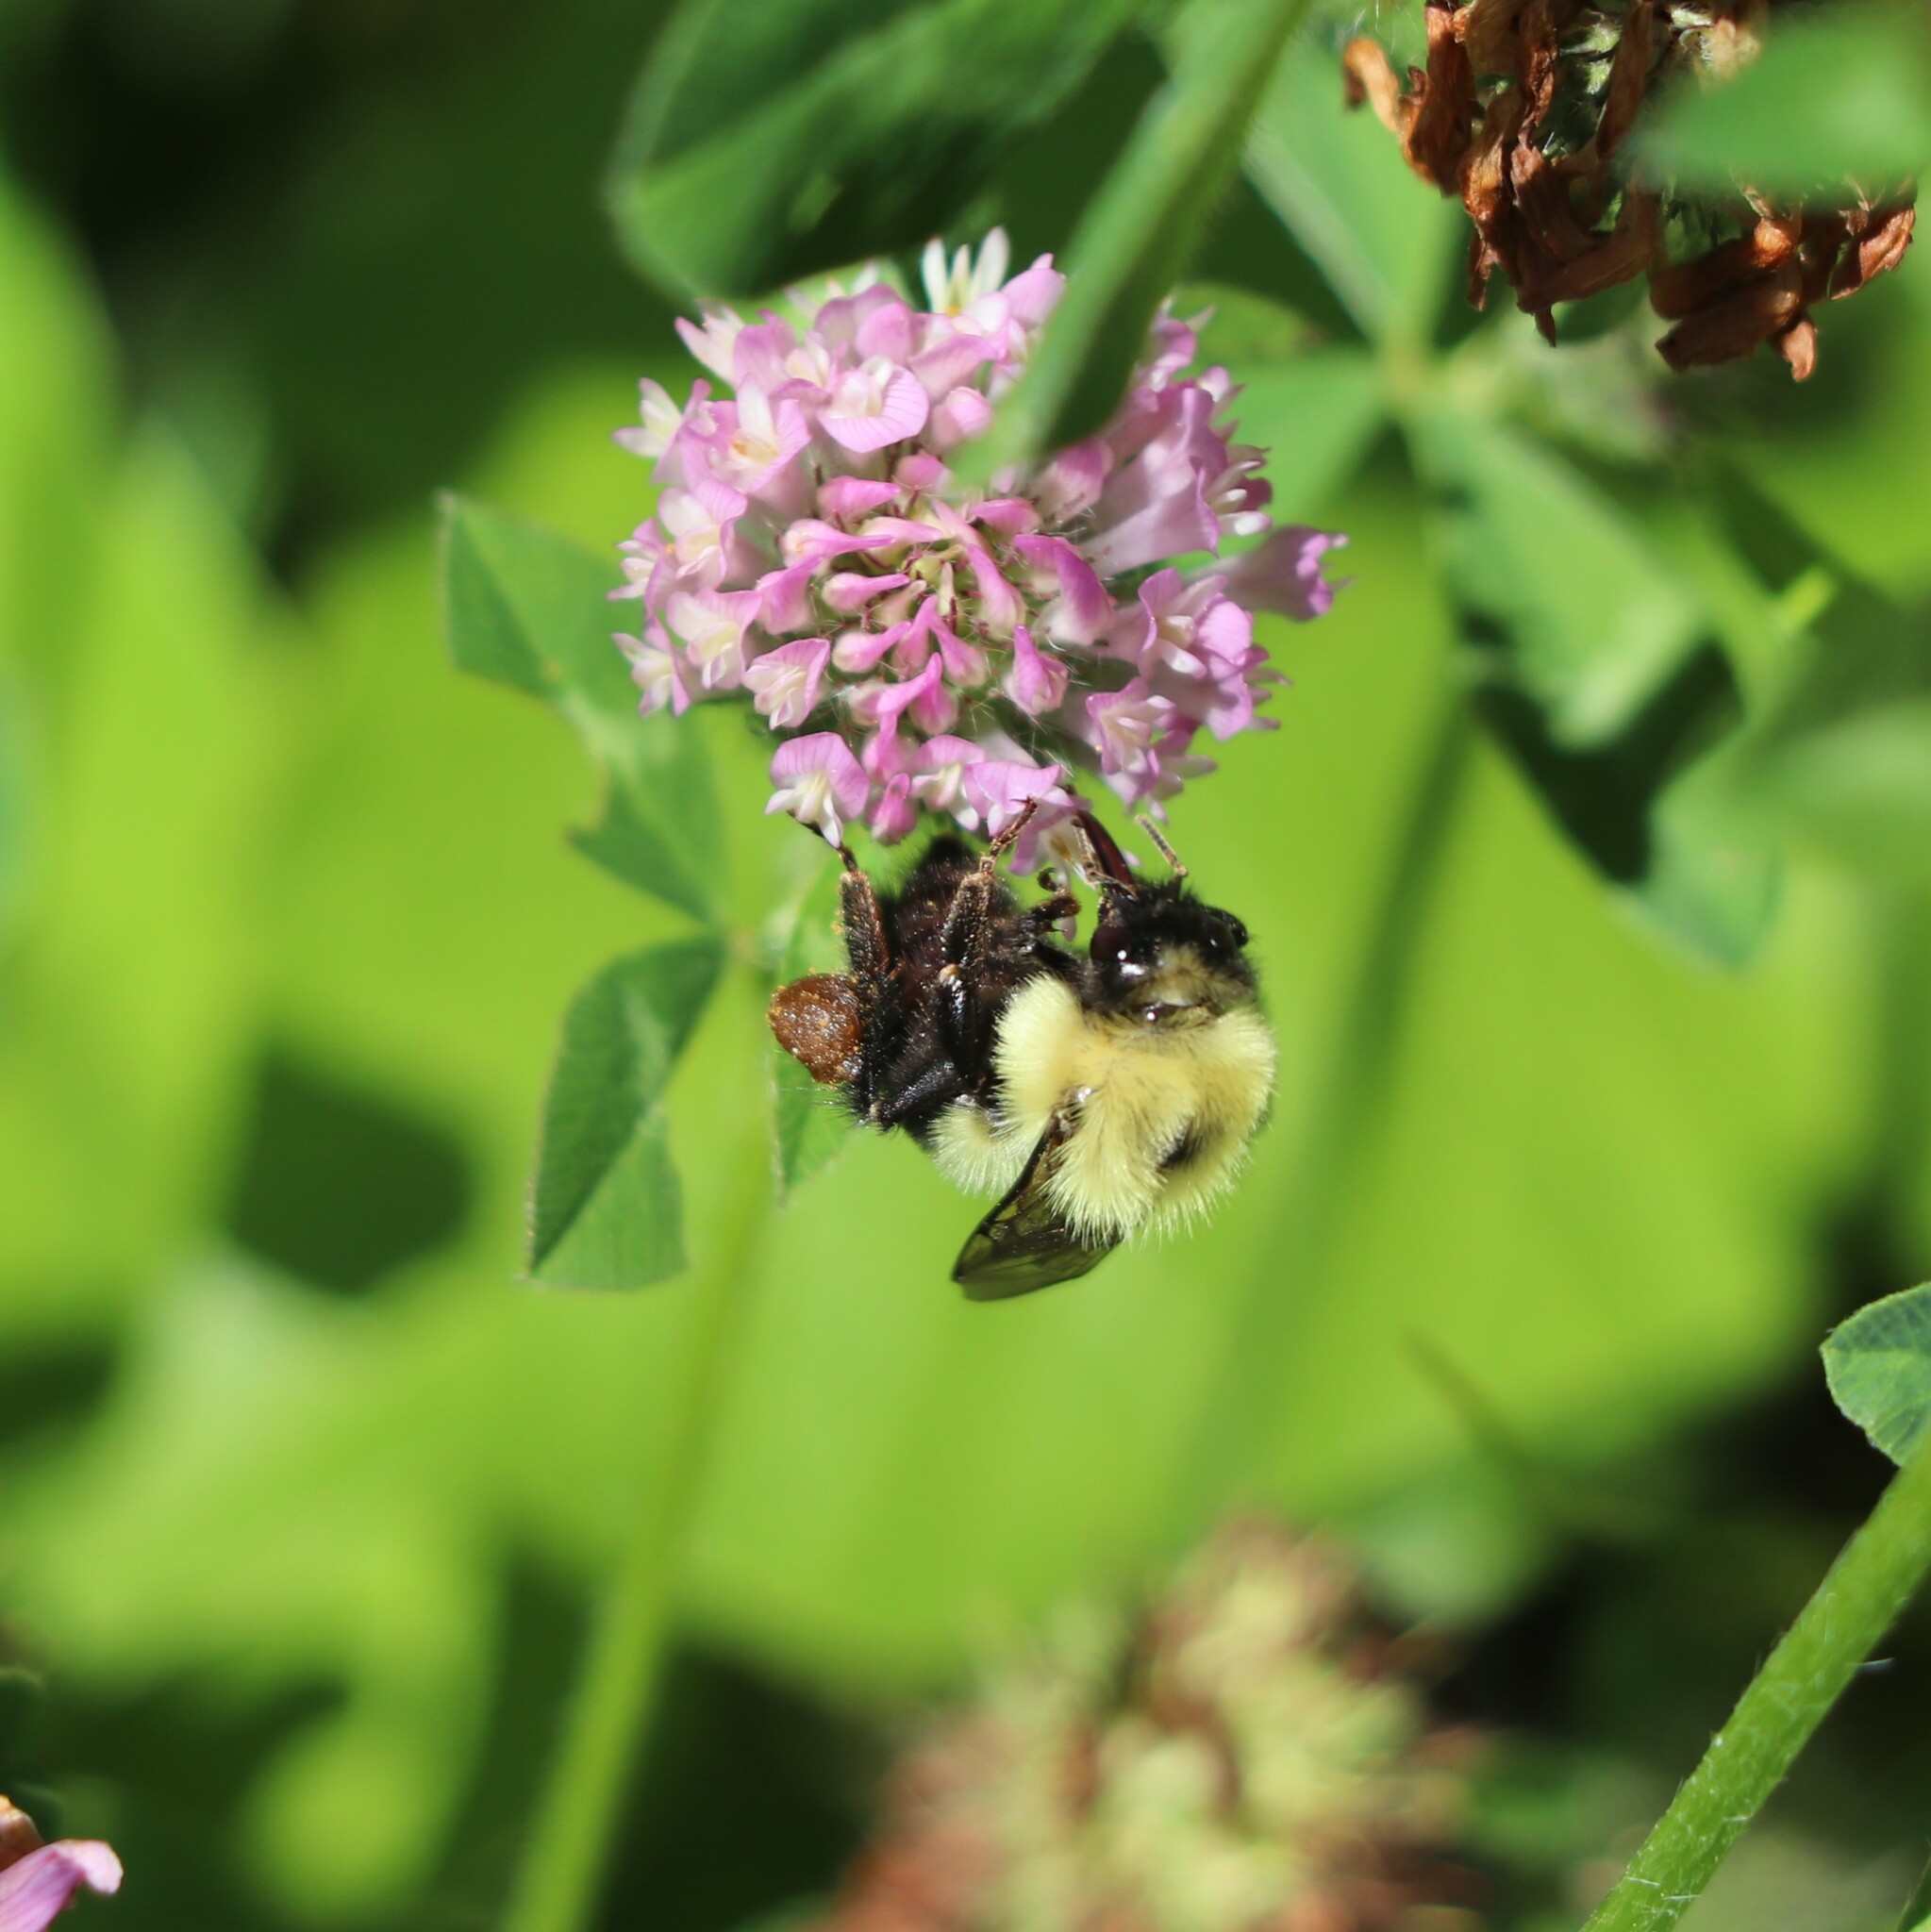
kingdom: Animalia
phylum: Arthropoda
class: Insecta
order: Hymenoptera
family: Apidae
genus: Bombus
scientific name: Bombus bimaculatus
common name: Two-spotted bumble bee
